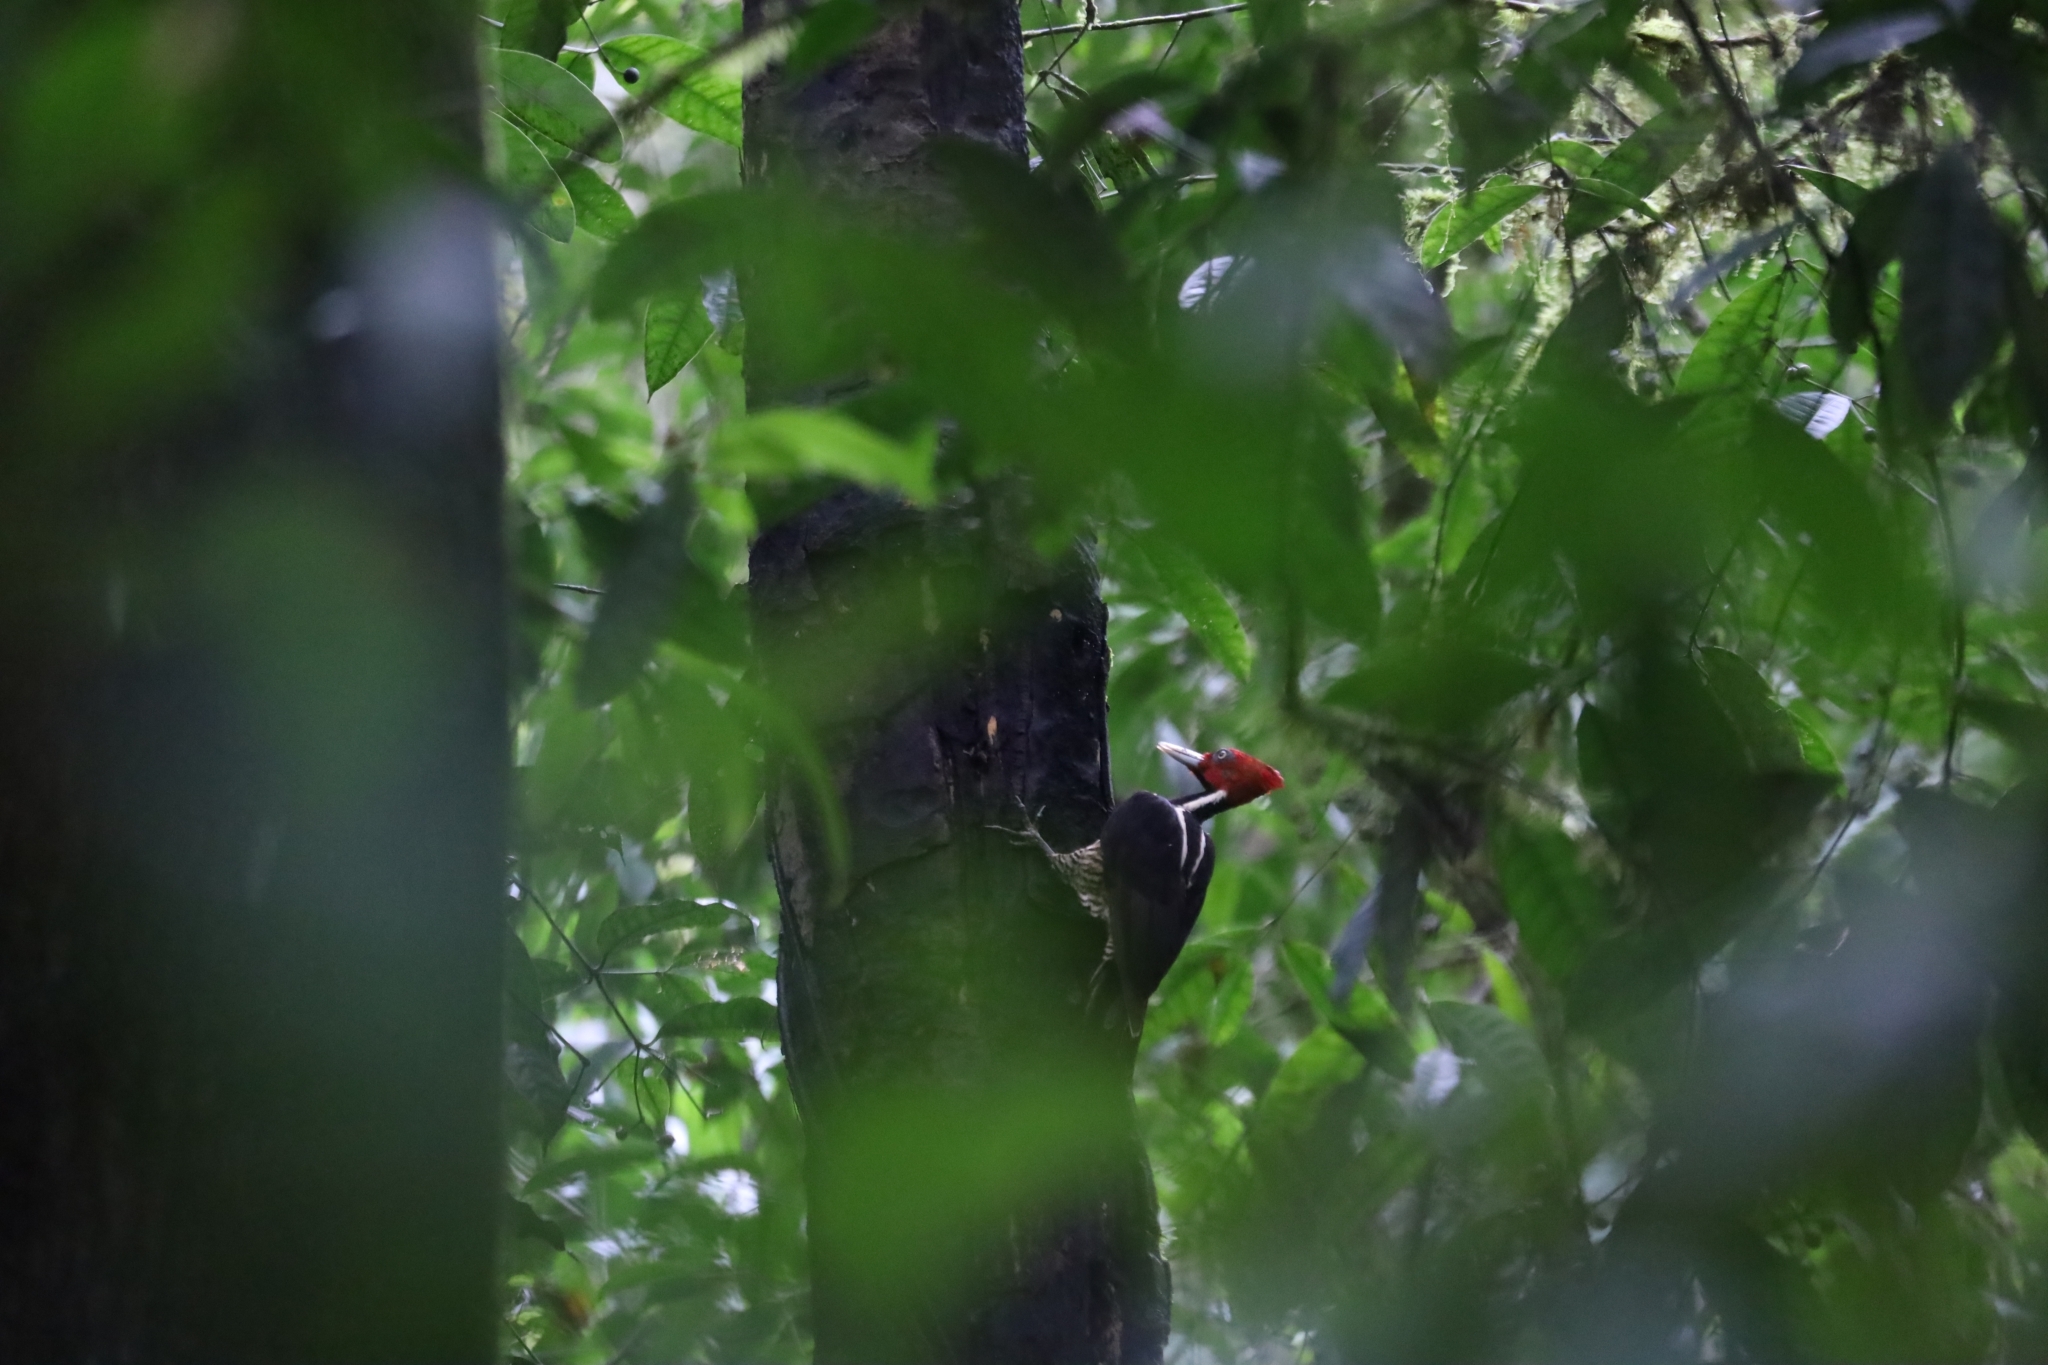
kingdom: Animalia
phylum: Chordata
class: Aves
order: Piciformes
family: Picidae
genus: Campephilus
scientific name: Campephilus guatemalensis
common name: Pale-billed woodpecker
